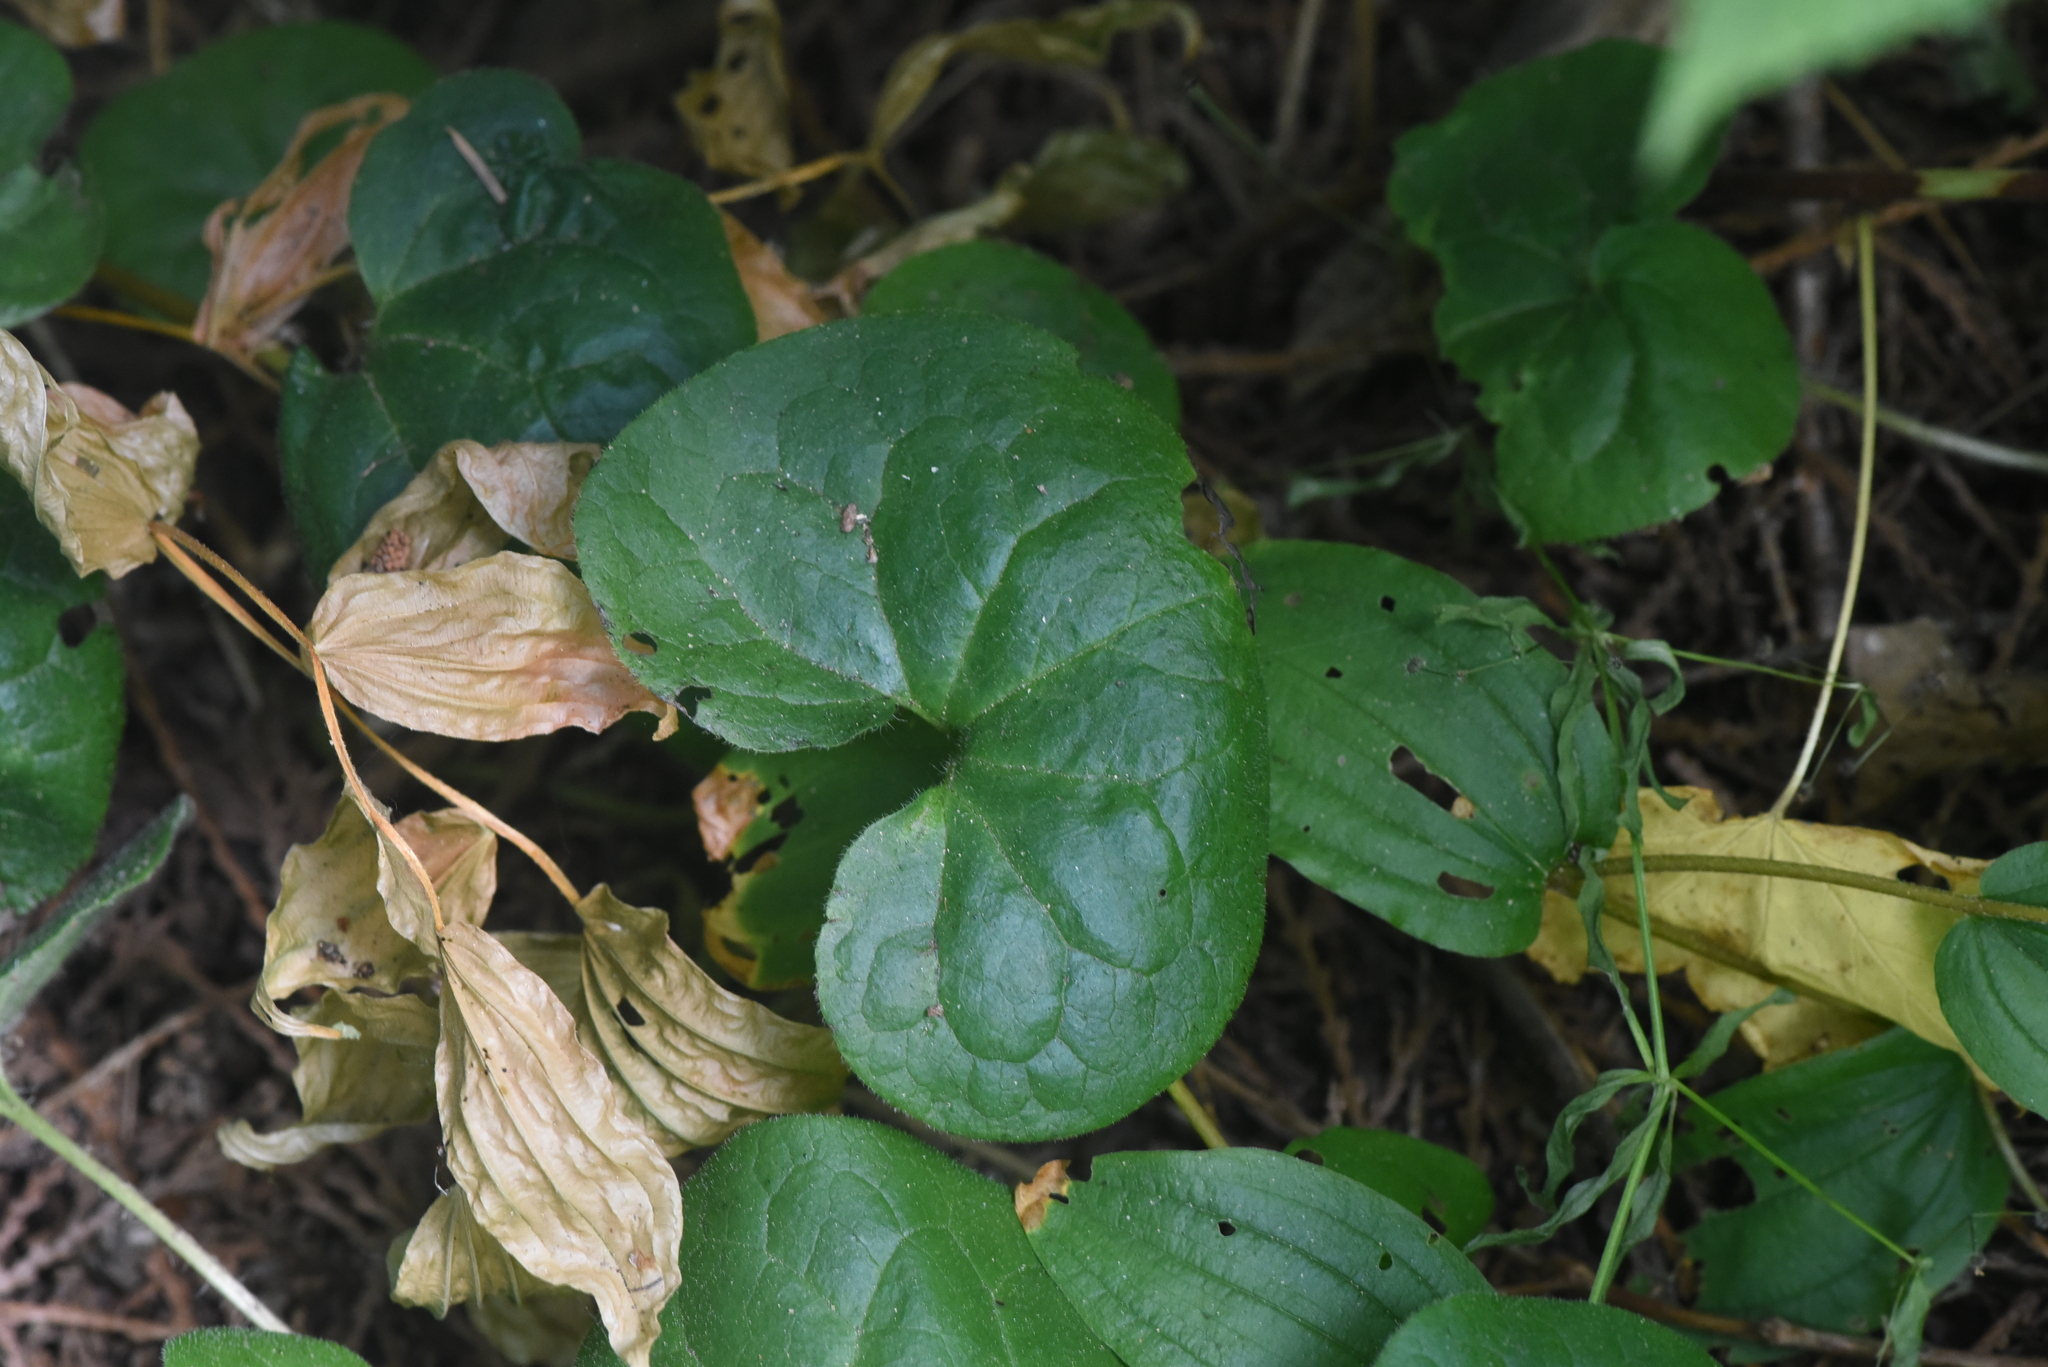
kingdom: Plantae
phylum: Tracheophyta
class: Magnoliopsida
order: Piperales
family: Aristolochiaceae
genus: Asarum
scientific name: Asarum caudatum
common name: Wild ginger
